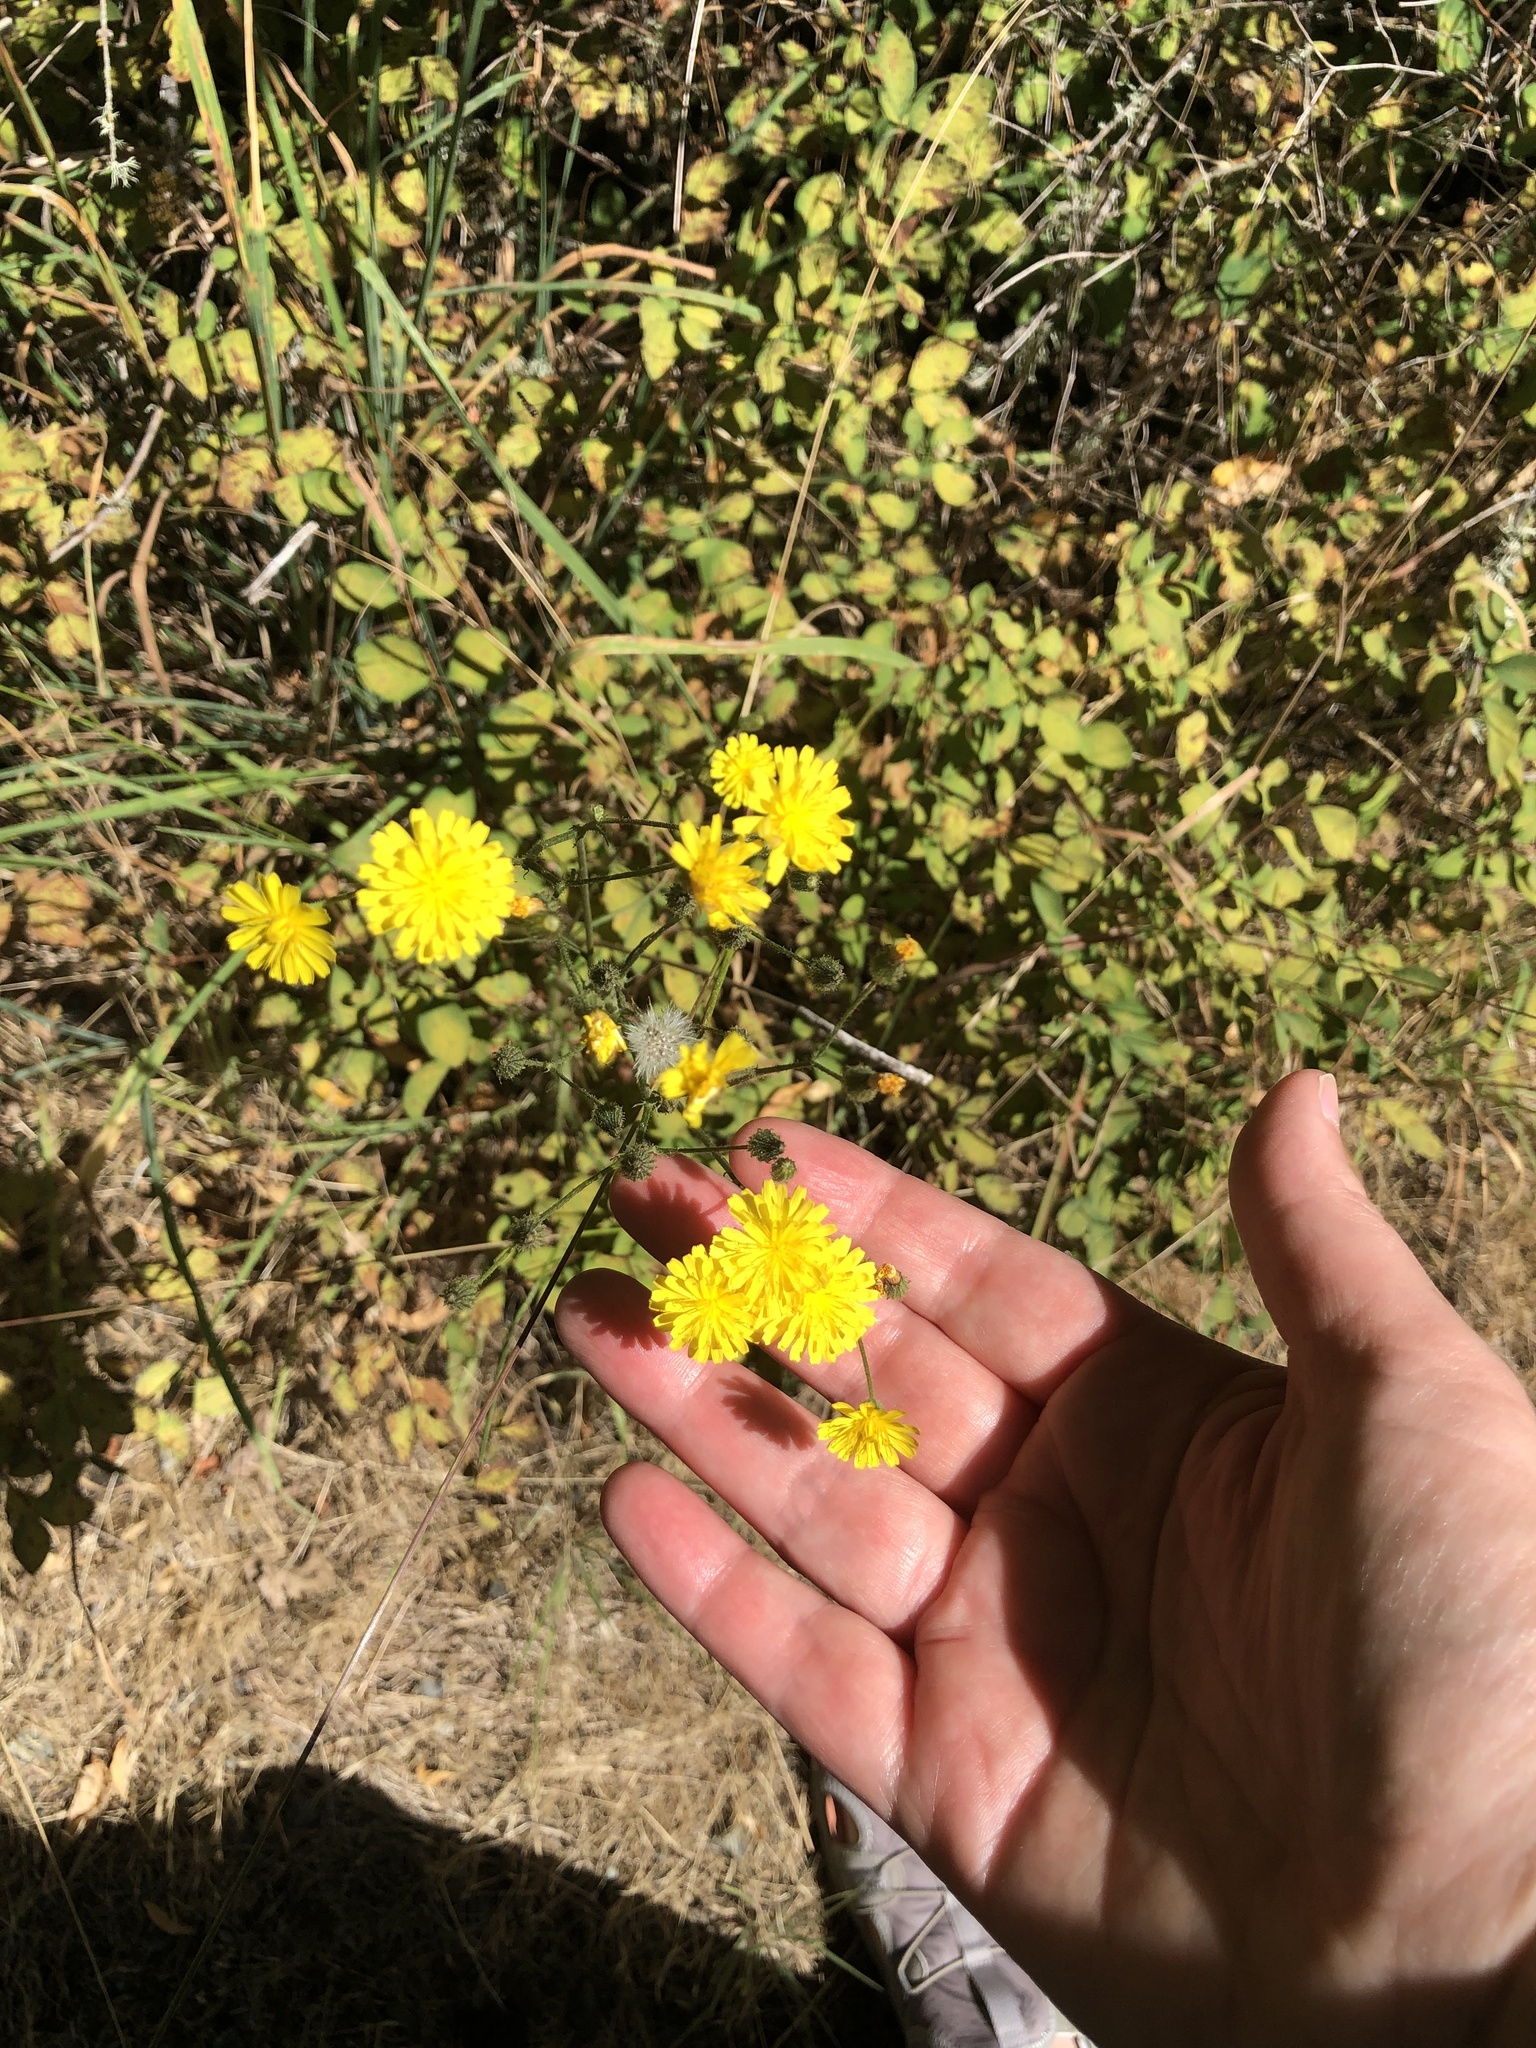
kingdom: Plantae
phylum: Tracheophyta
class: Magnoliopsida
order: Asterales
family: Asteraceae
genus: Crepis
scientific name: Crepis capillaris
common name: Smooth hawksbeard
